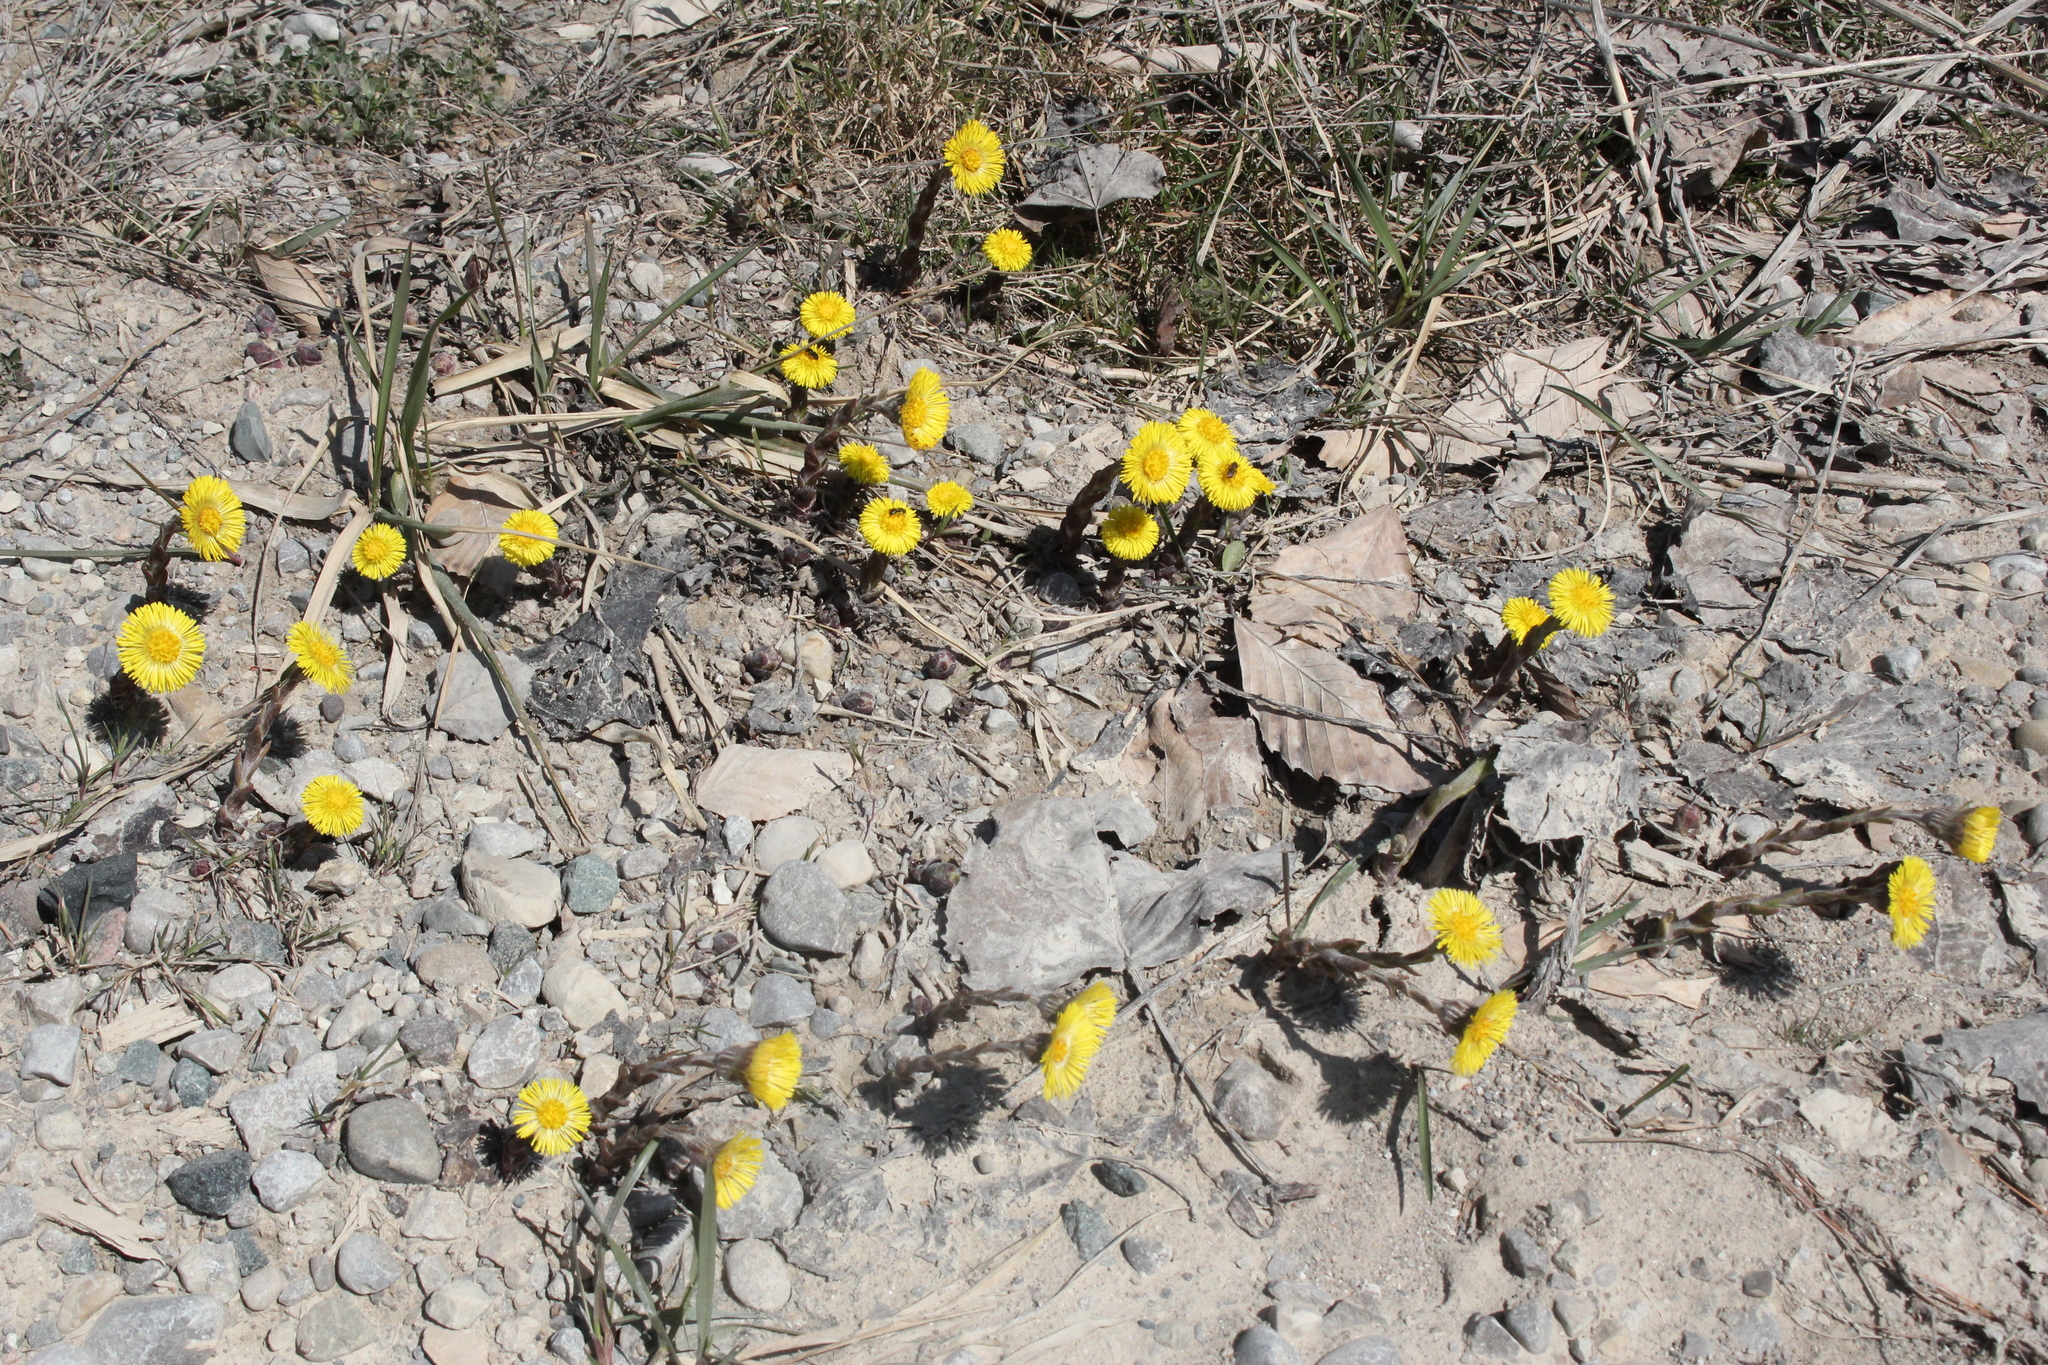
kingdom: Plantae
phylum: Tracheophyta
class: Magnoliopsida
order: Asterales
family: Asteraceae
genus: Tussilago
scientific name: Tussilago farfara
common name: Coltsfoot
